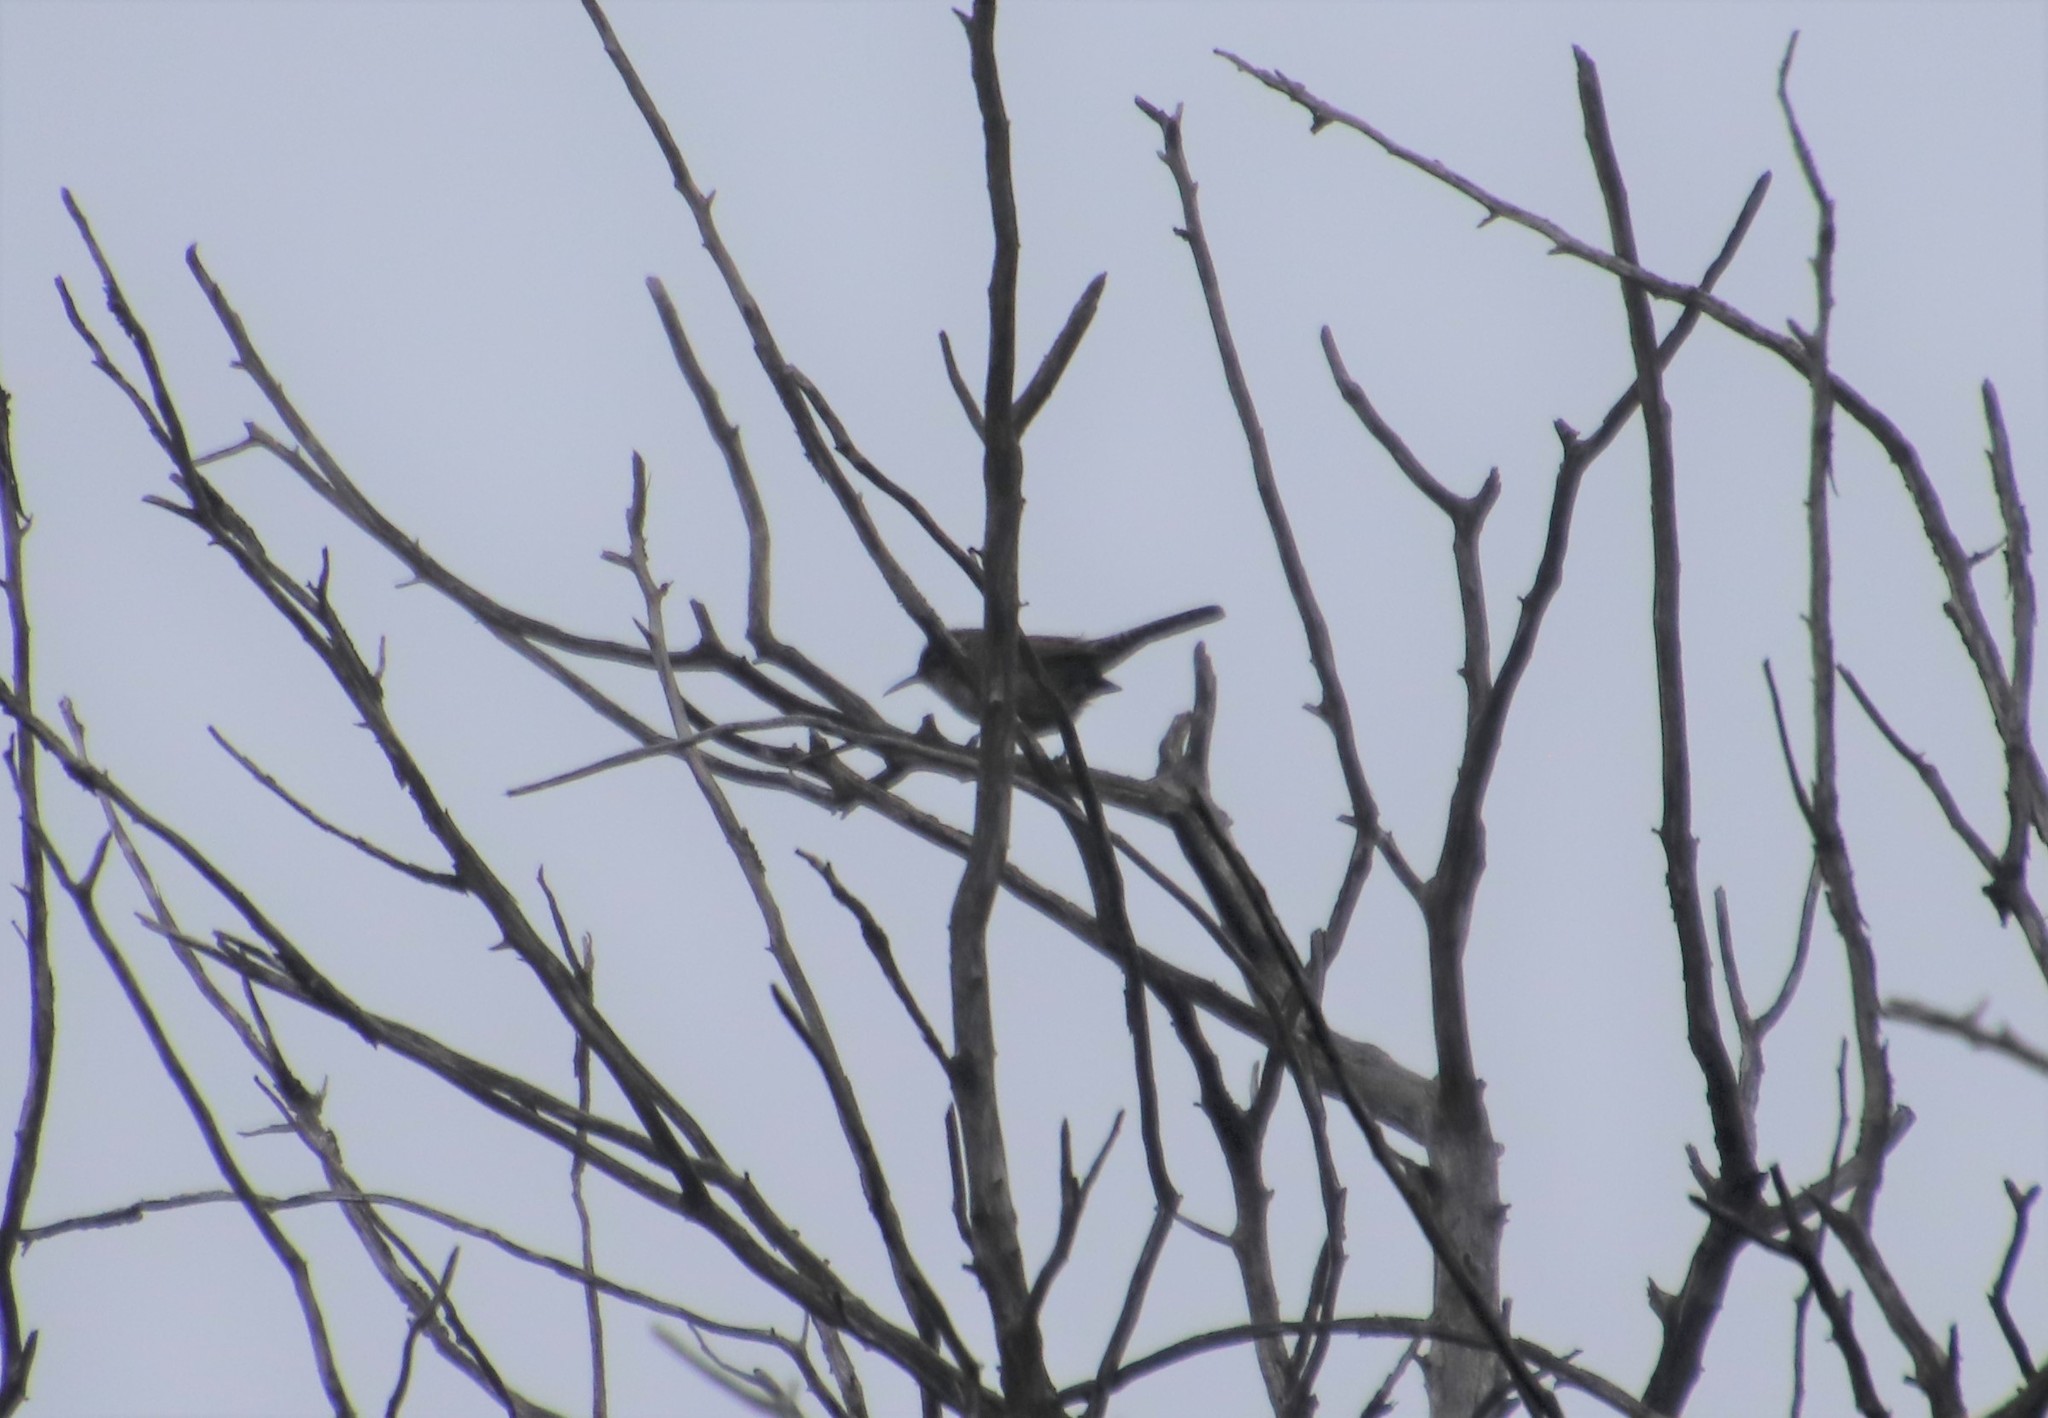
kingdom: Animalia
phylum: Chordata
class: Aves
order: Passeriformes
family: Troglodytidae
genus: Thryomanes
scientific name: Thryomanes bewickii
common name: Bewick's wren
